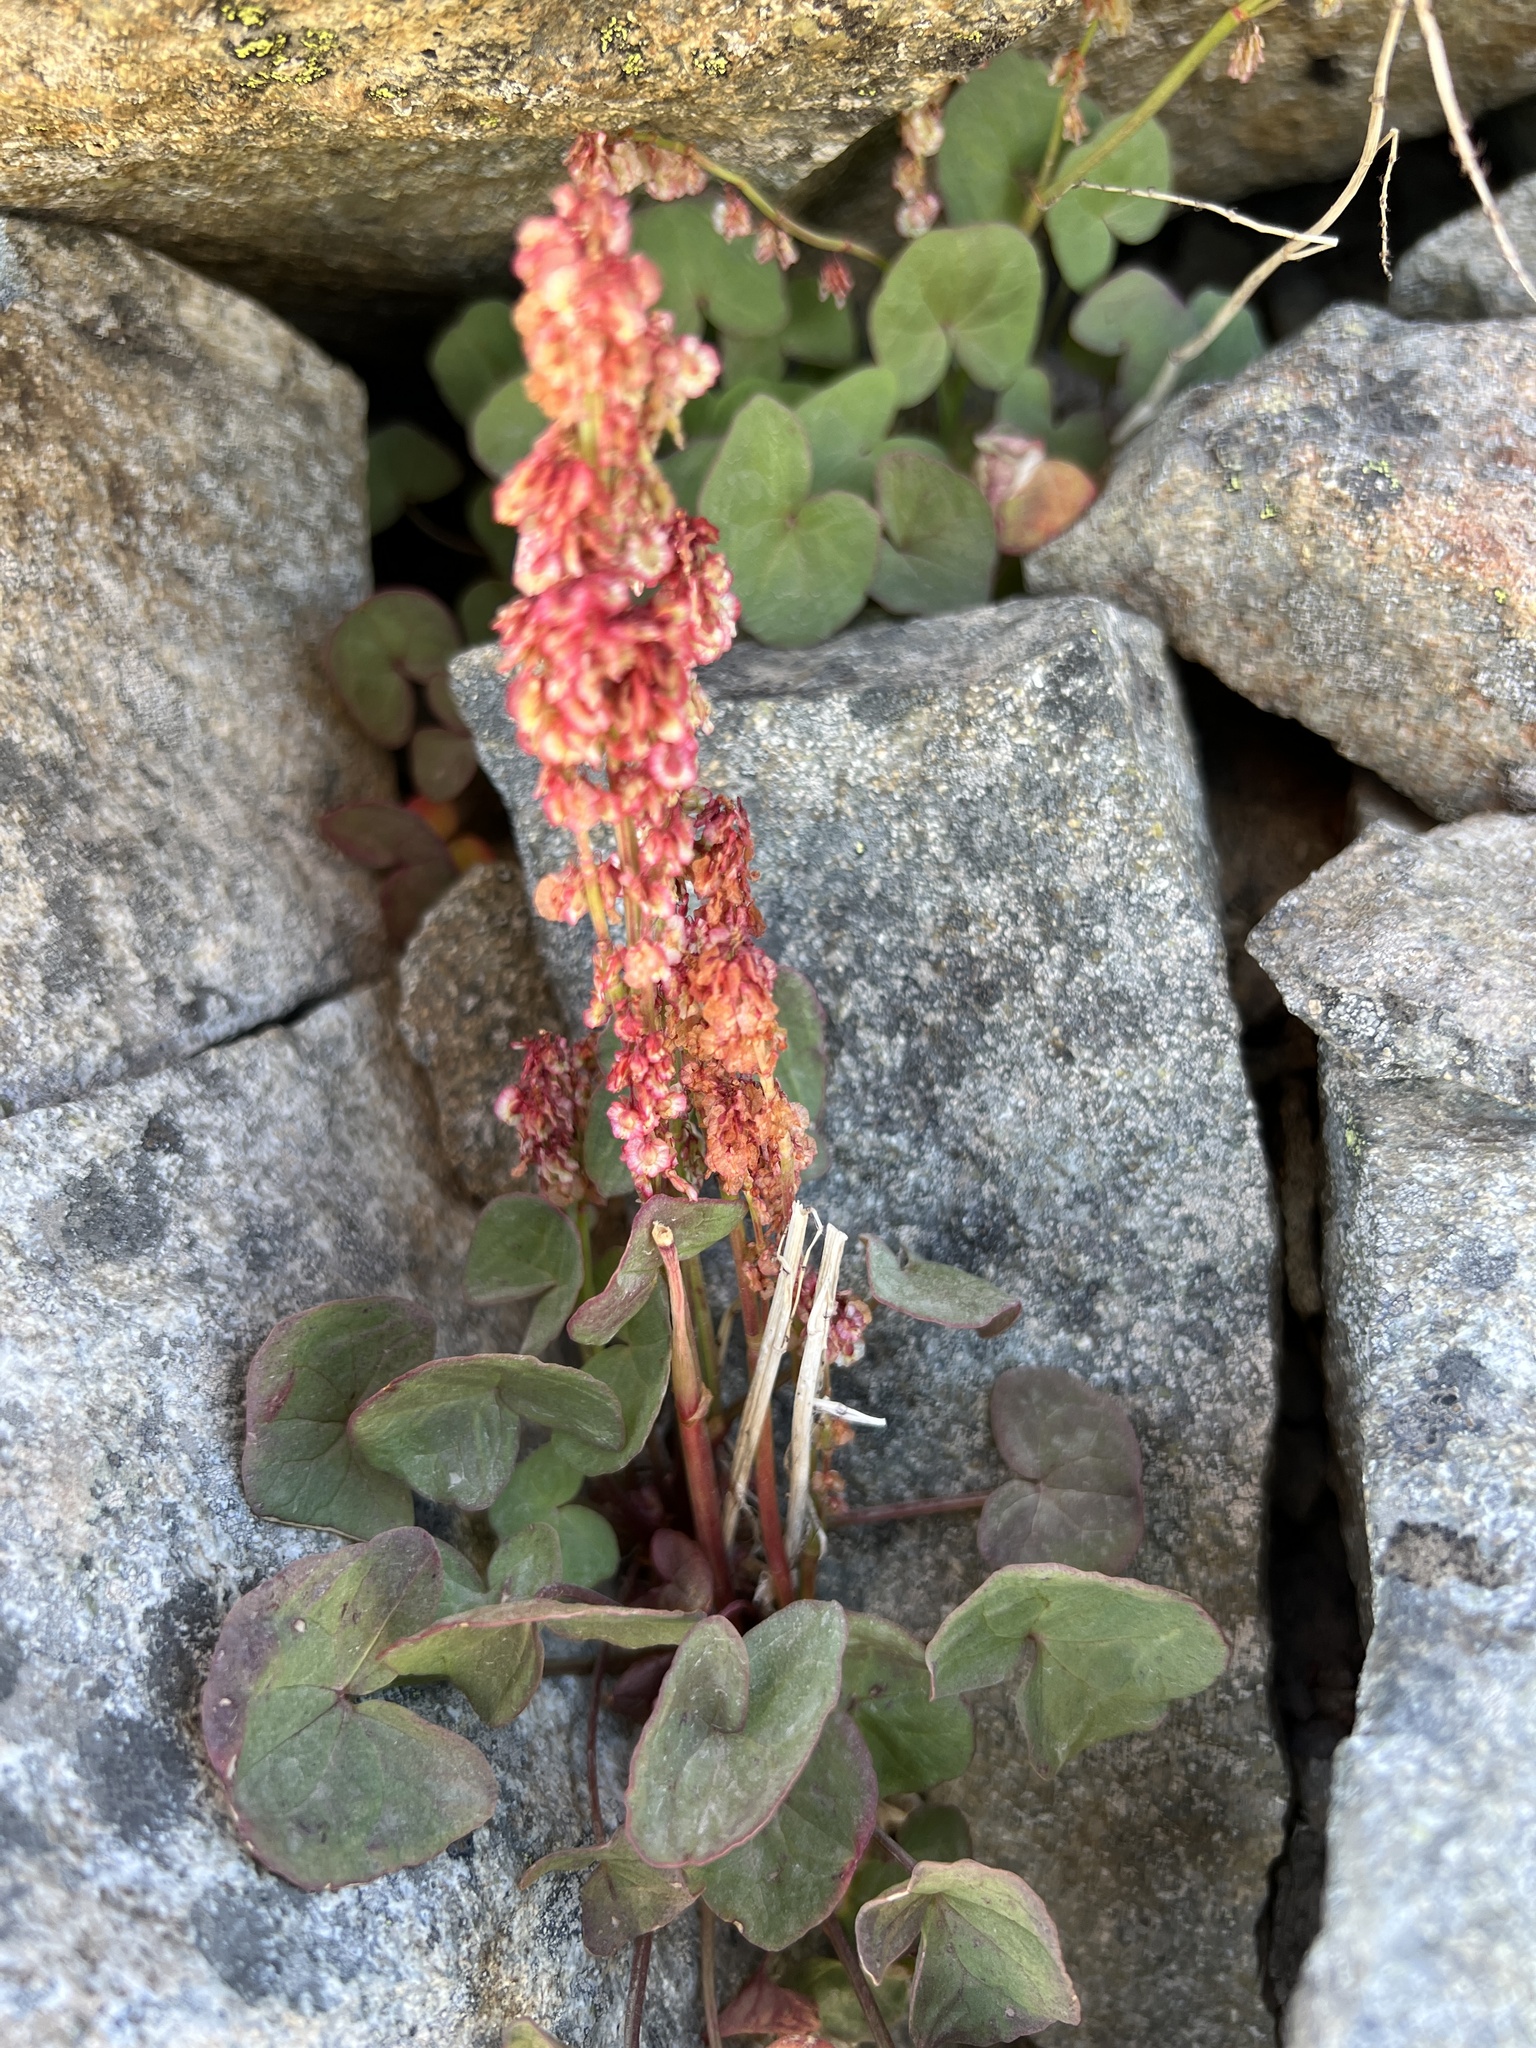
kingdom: Plantae
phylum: Tracheophyta
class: Magnoliopsida
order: Caryophyllales
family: Polygonaceae
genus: Oxyria
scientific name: Oxyria digyna
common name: Alpine mountain-sorrel
